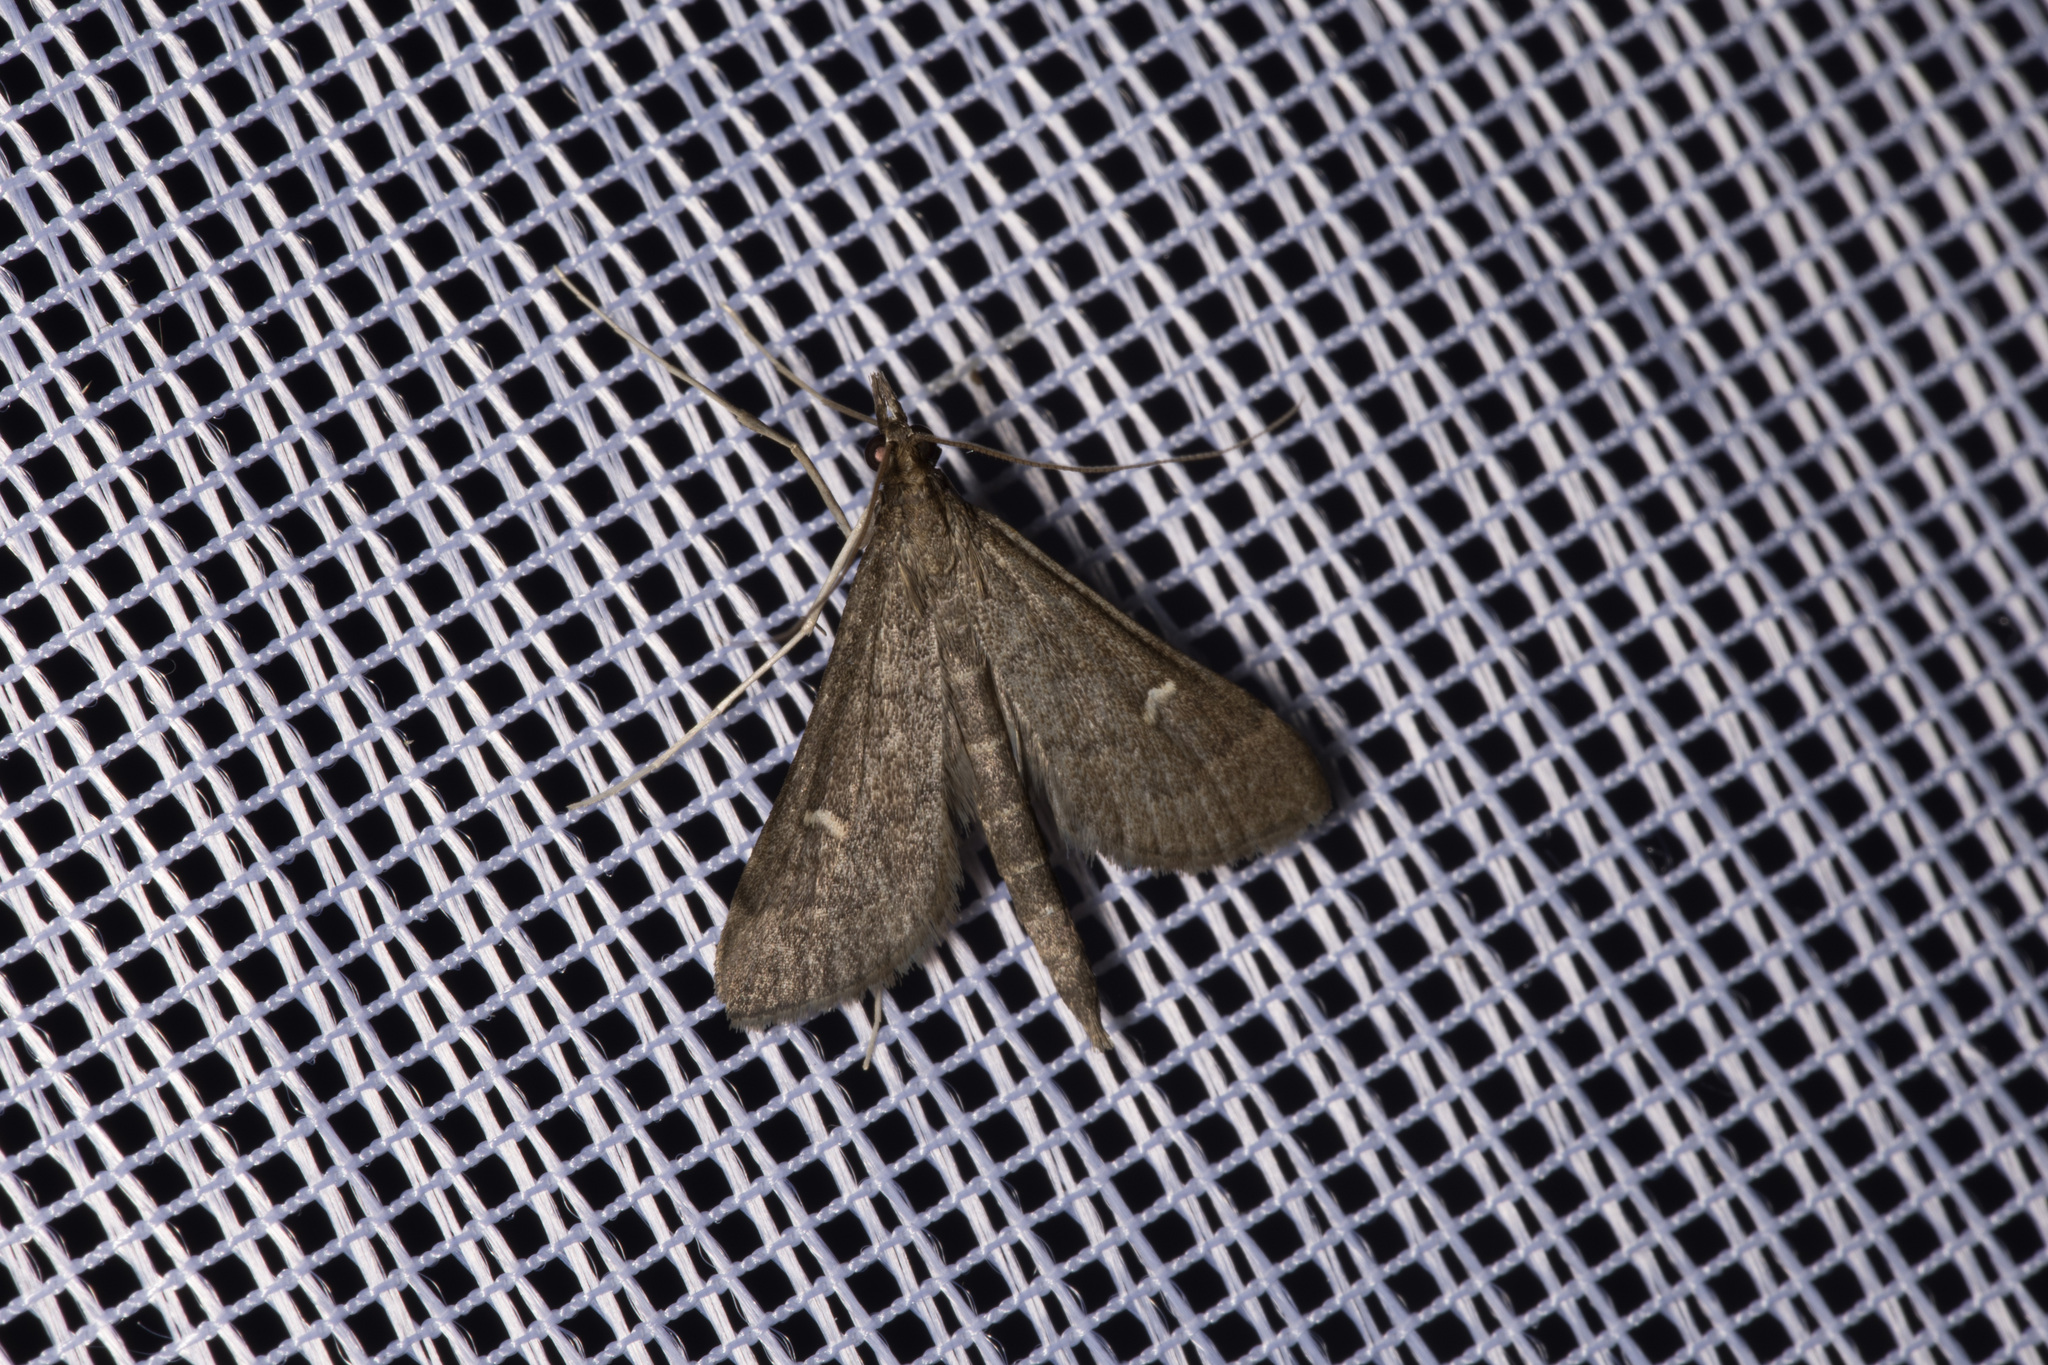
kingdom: Animalia
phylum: Arthropoda
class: Insecta
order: Lepidoptera
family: Crambidae
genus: Stenia
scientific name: Stenia Dolicharthria punctalis
